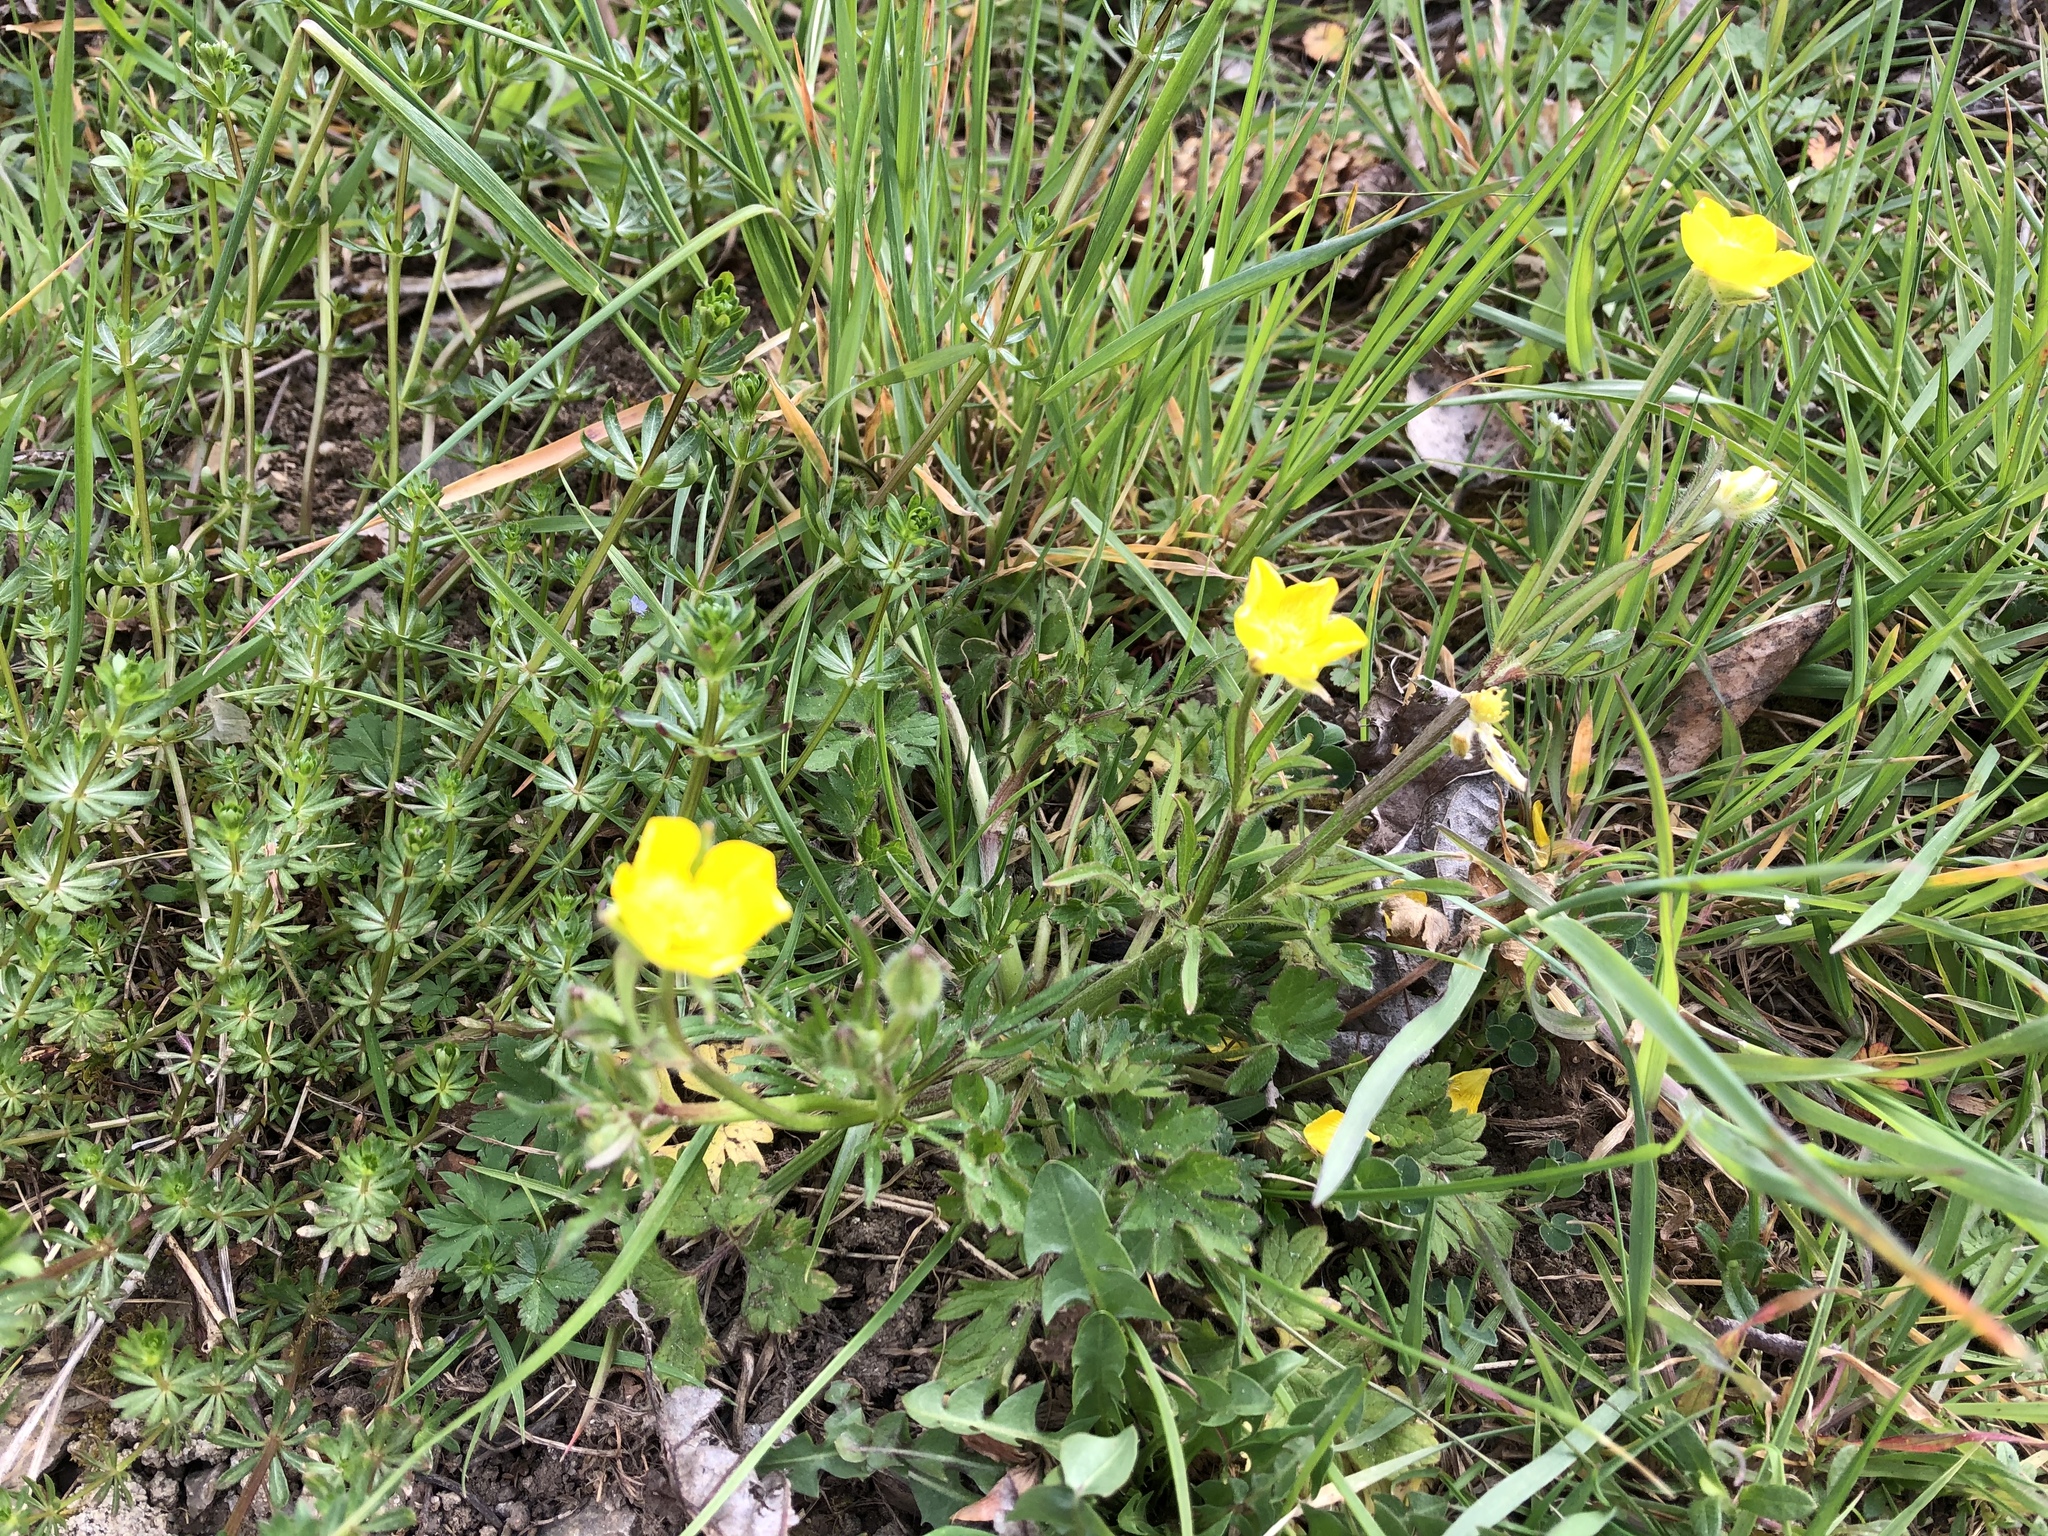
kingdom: Plantae
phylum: Tracheophyta
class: Magnoliopsida
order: Ranunculales
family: Ranunculaceae
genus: Ranunculus
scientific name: Ranunculus bulbosus
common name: Bulbous buttercup
